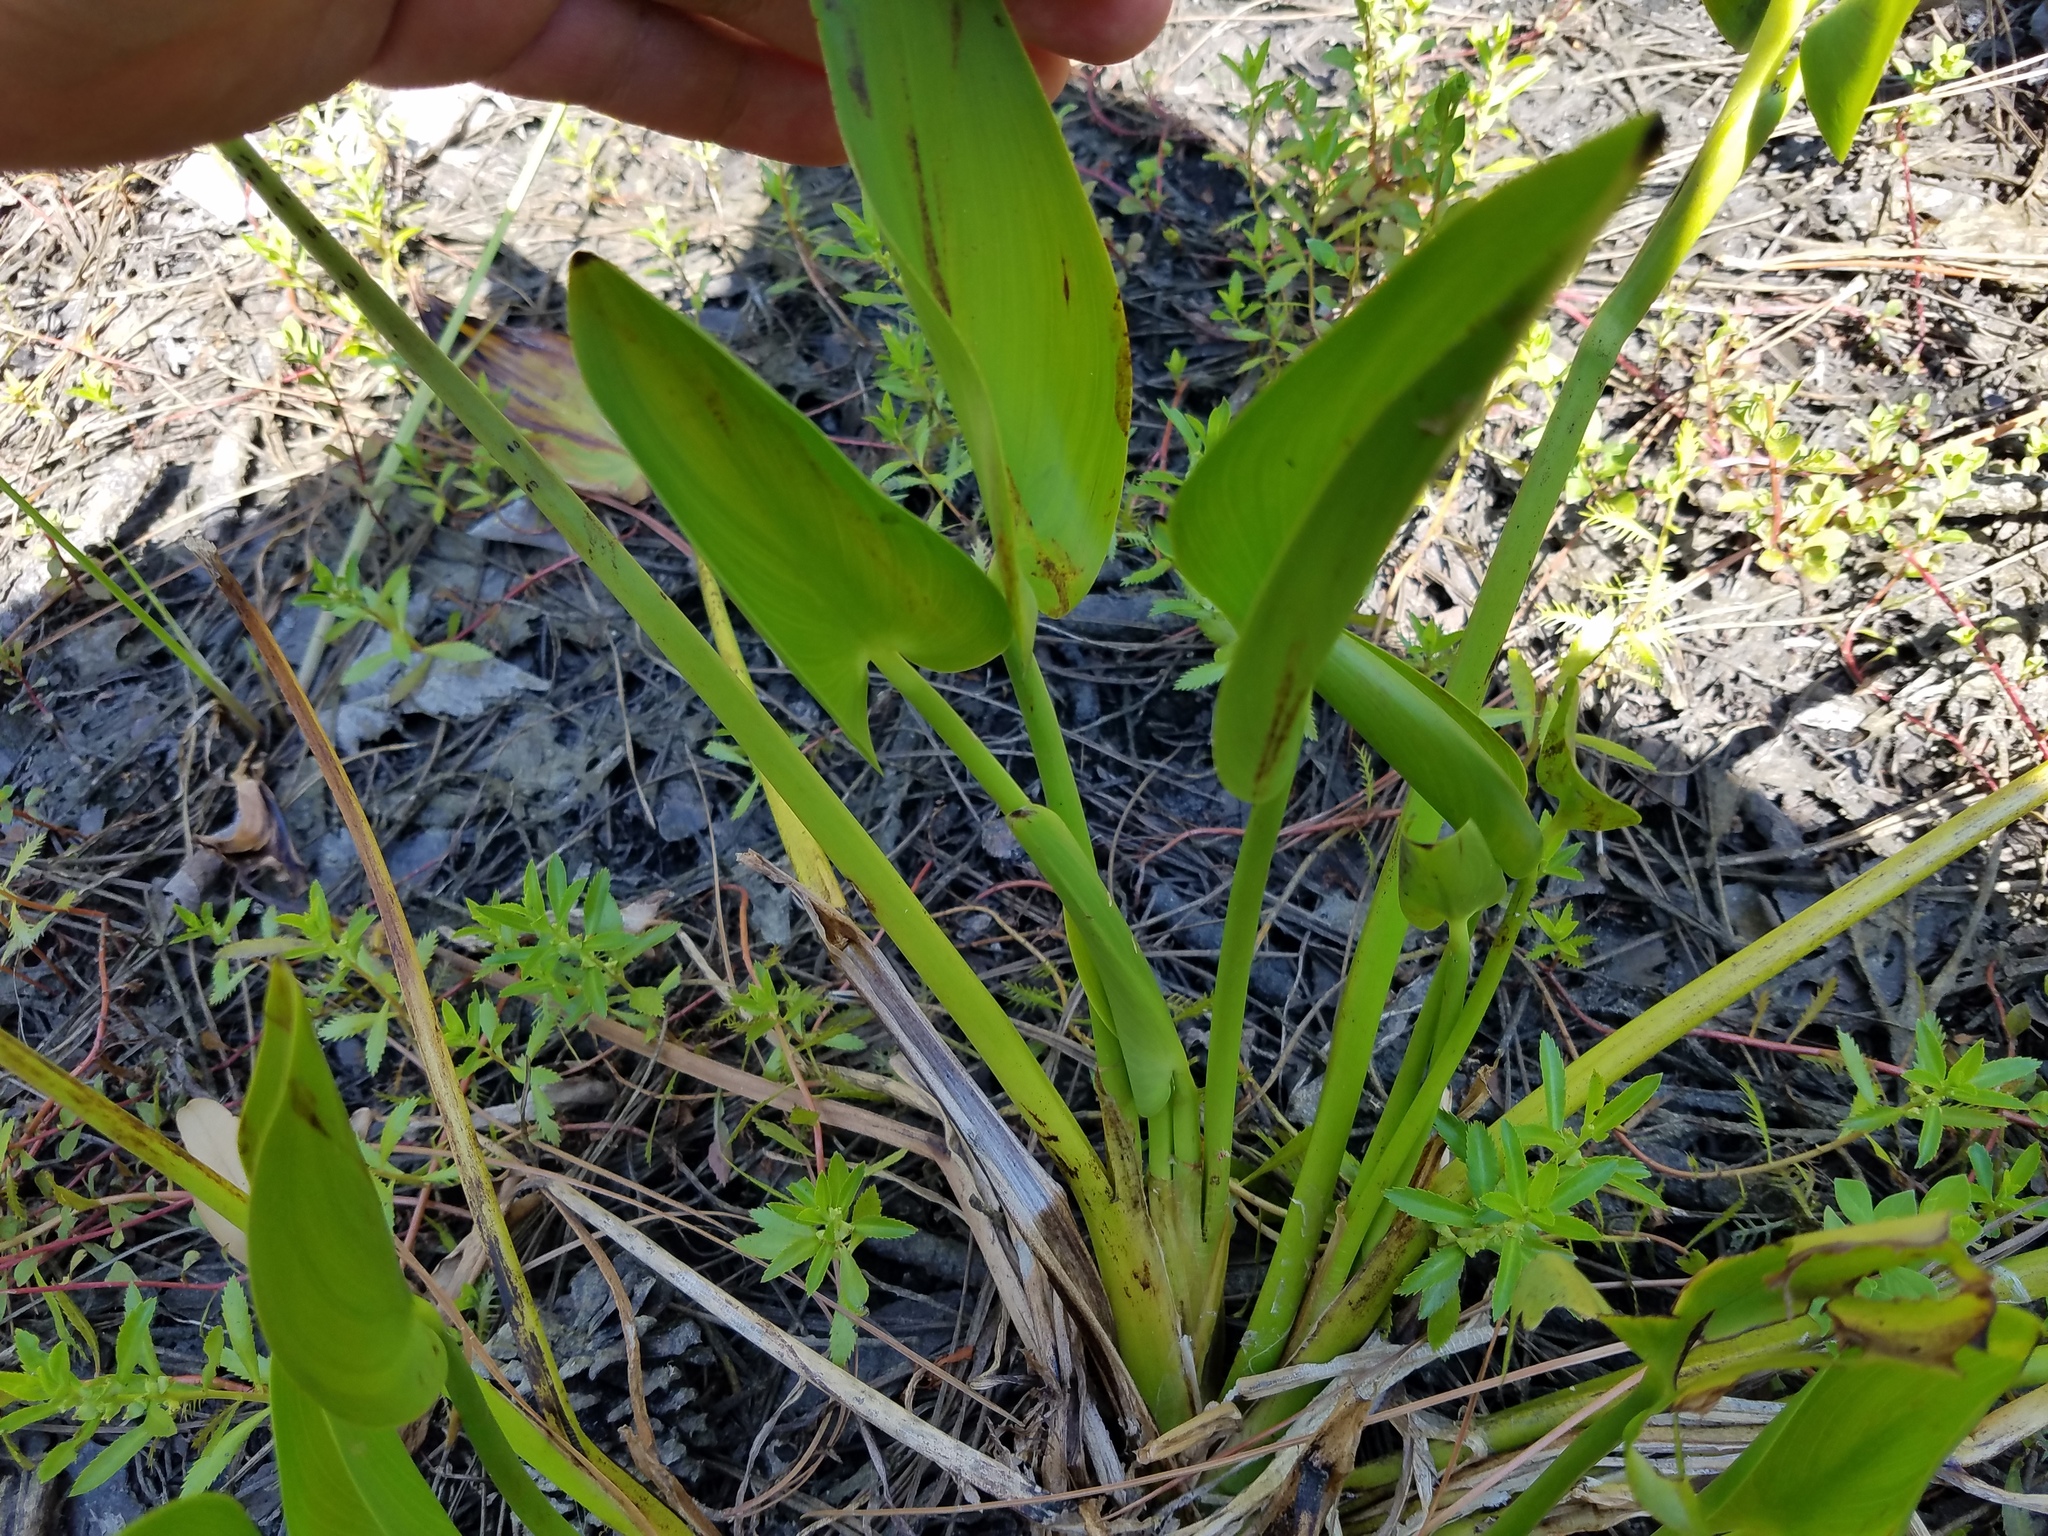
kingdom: Plantae
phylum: Tracheophyta
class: Liliopsida
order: Commelinales
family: Pontederiaceae
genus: Pontederia
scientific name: Pontederia cordata
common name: Pickerelweed
